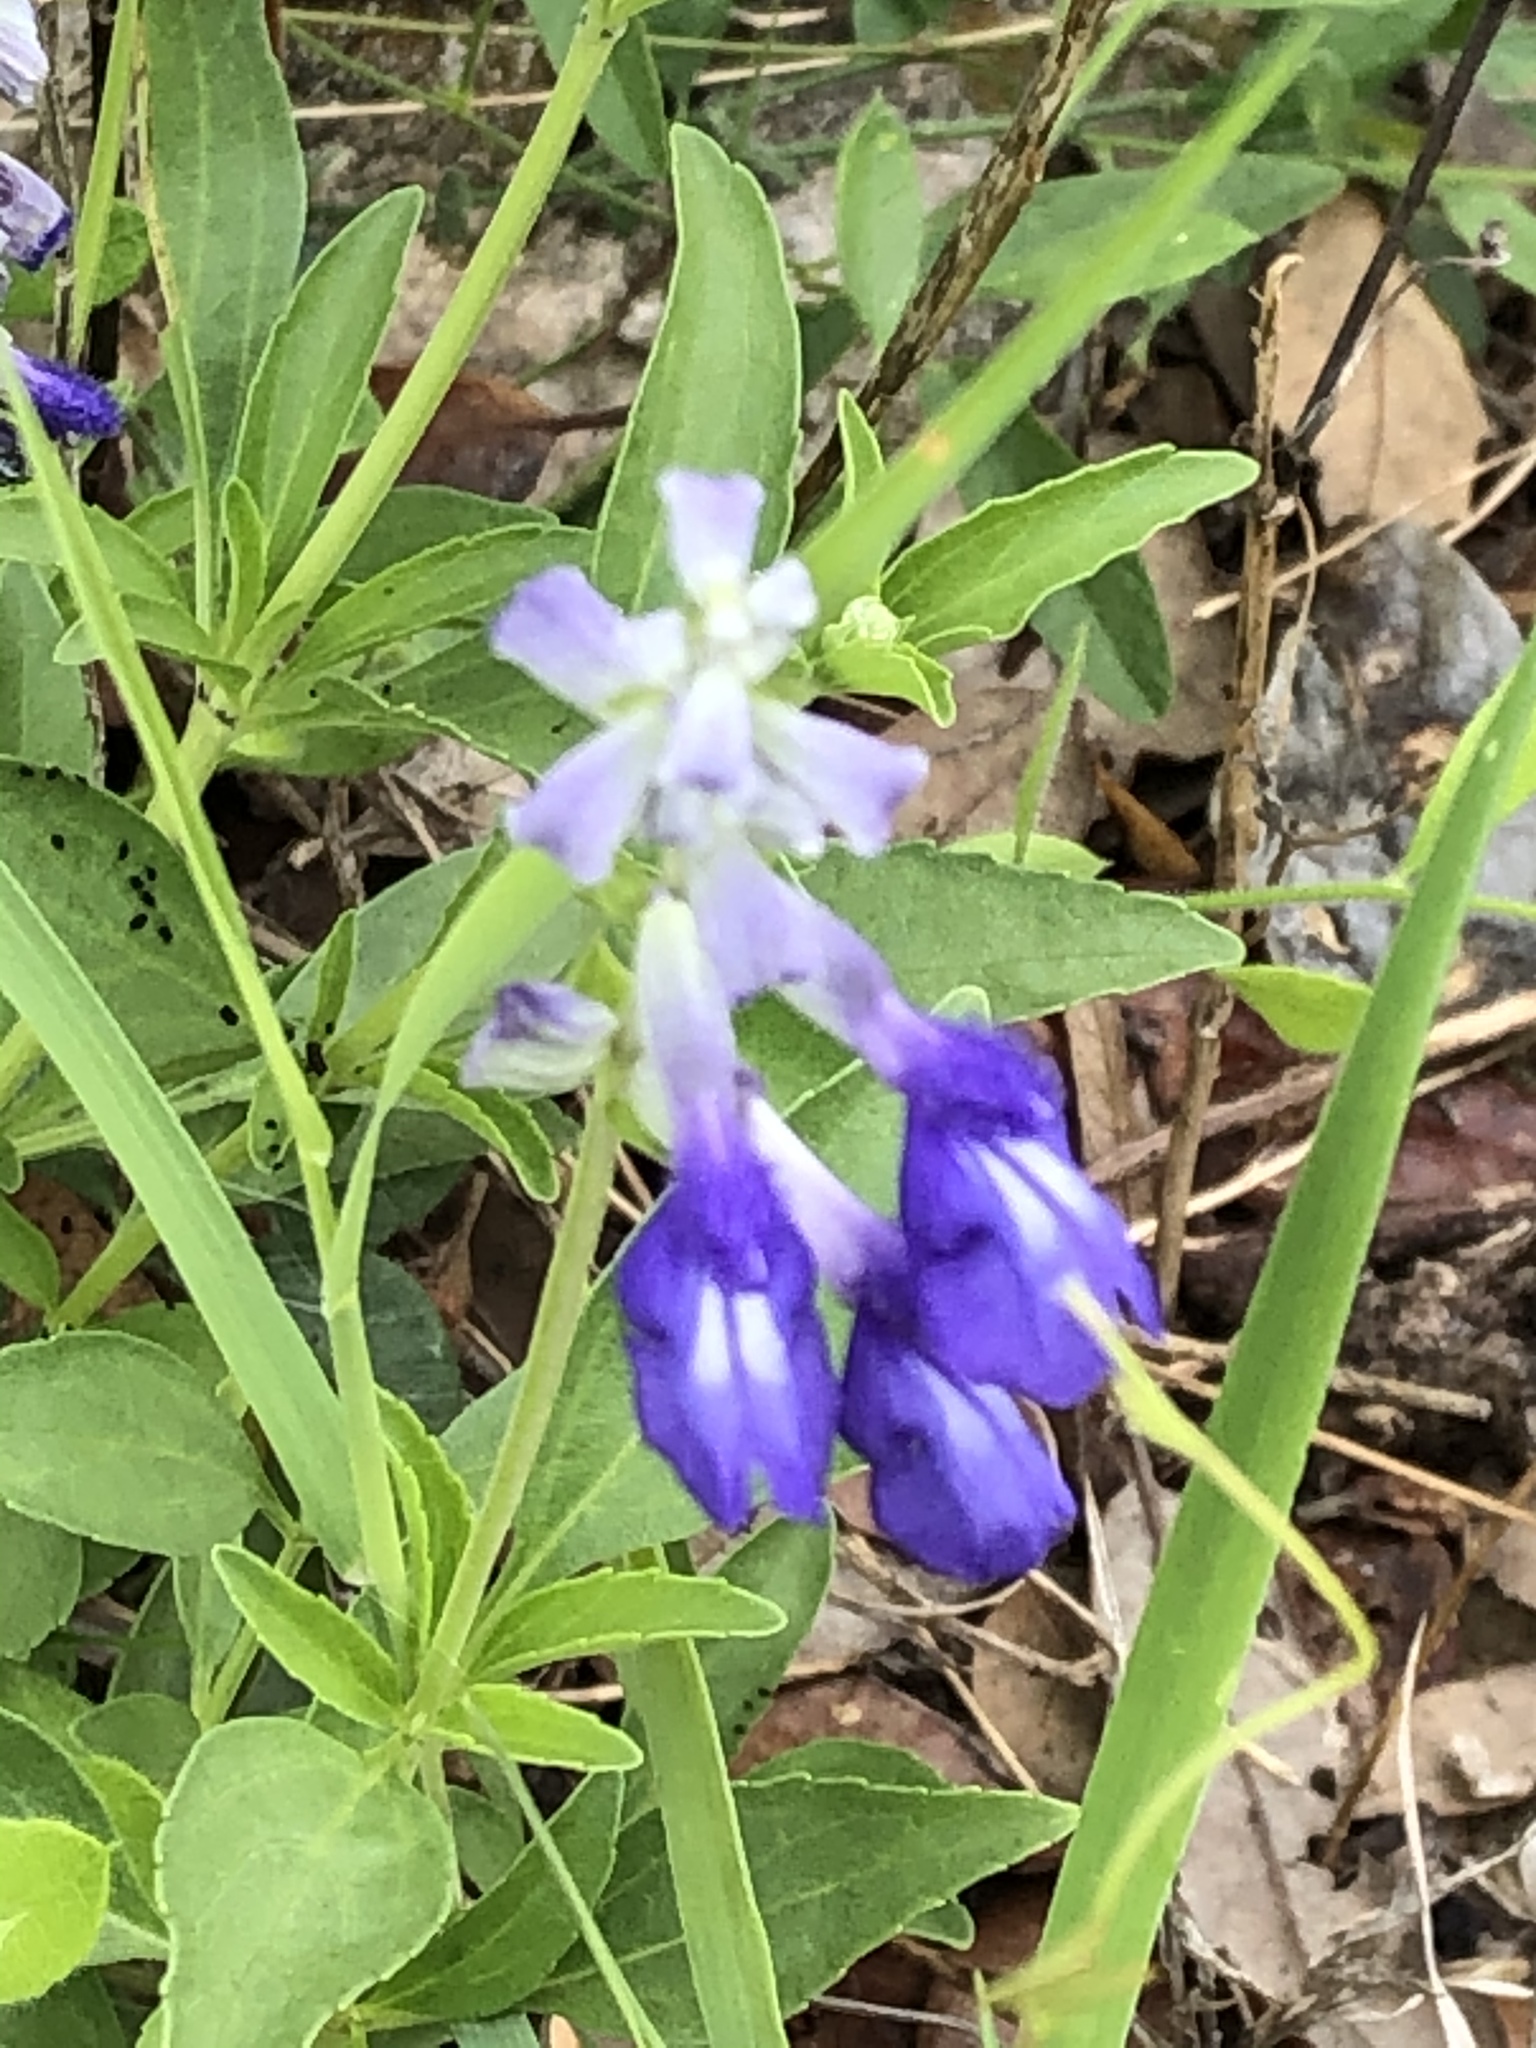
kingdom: Plantae
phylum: Tracheophyta
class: Magnoliopsida
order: Lamiales
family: Lamiaceae
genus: Salvia
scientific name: Salvia farinacea
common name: Mealy sage
